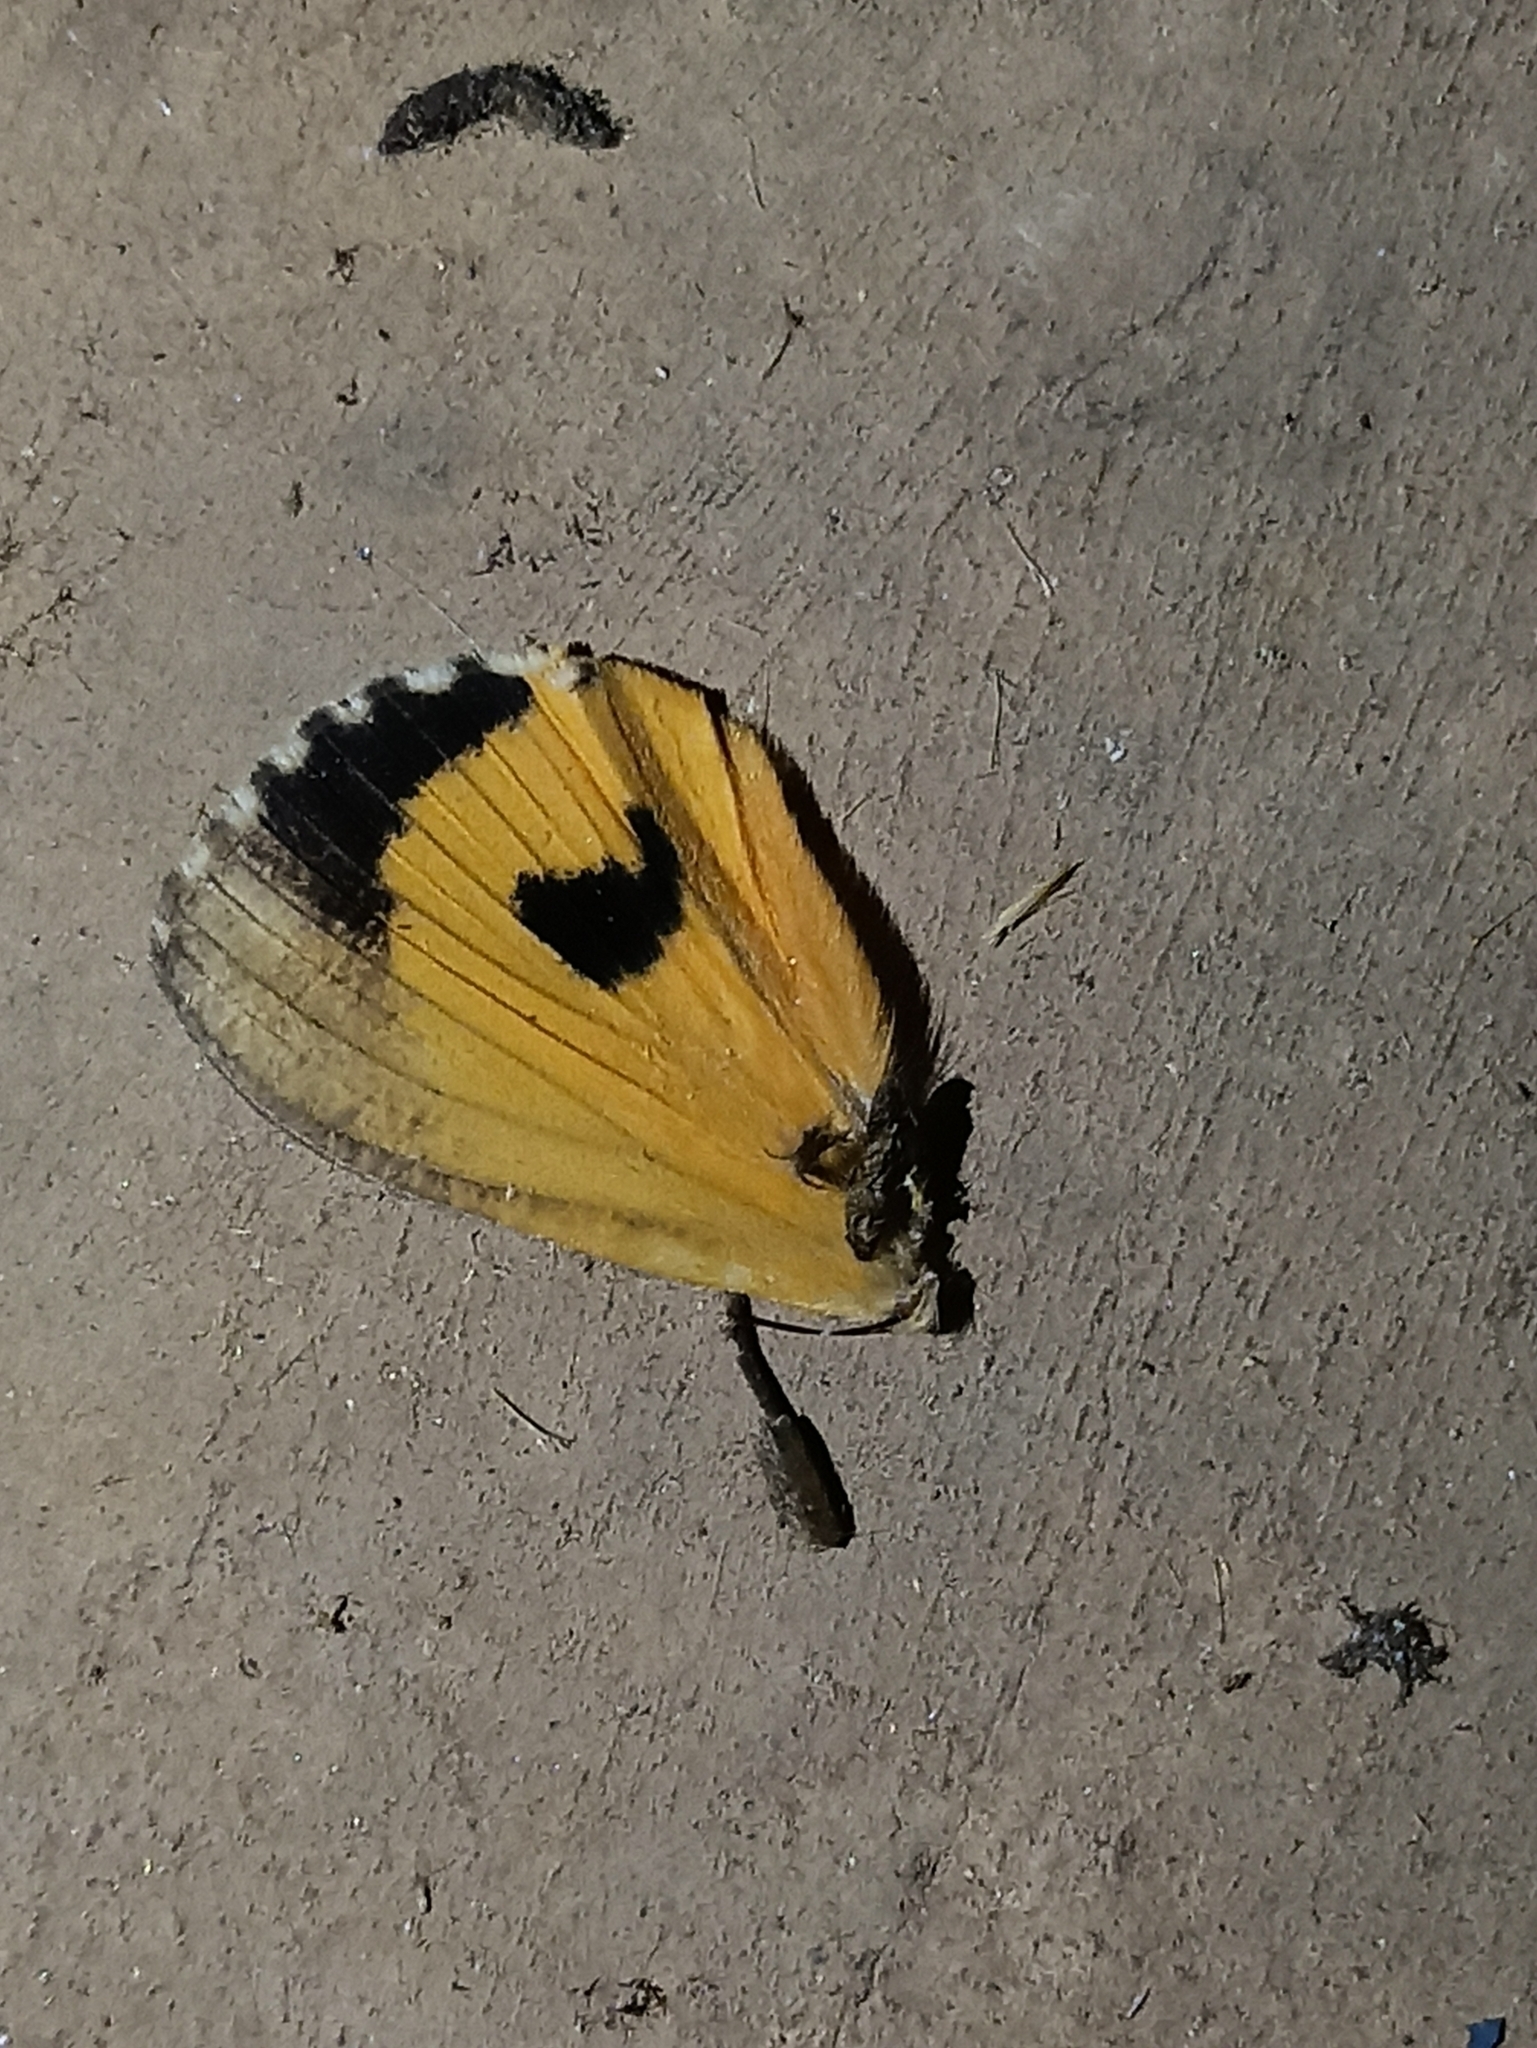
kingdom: Animalia
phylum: Arthropoda
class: Insecta
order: Lepidoptera
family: Erebidae
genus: Eudocima
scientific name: Eudocima salaminia
